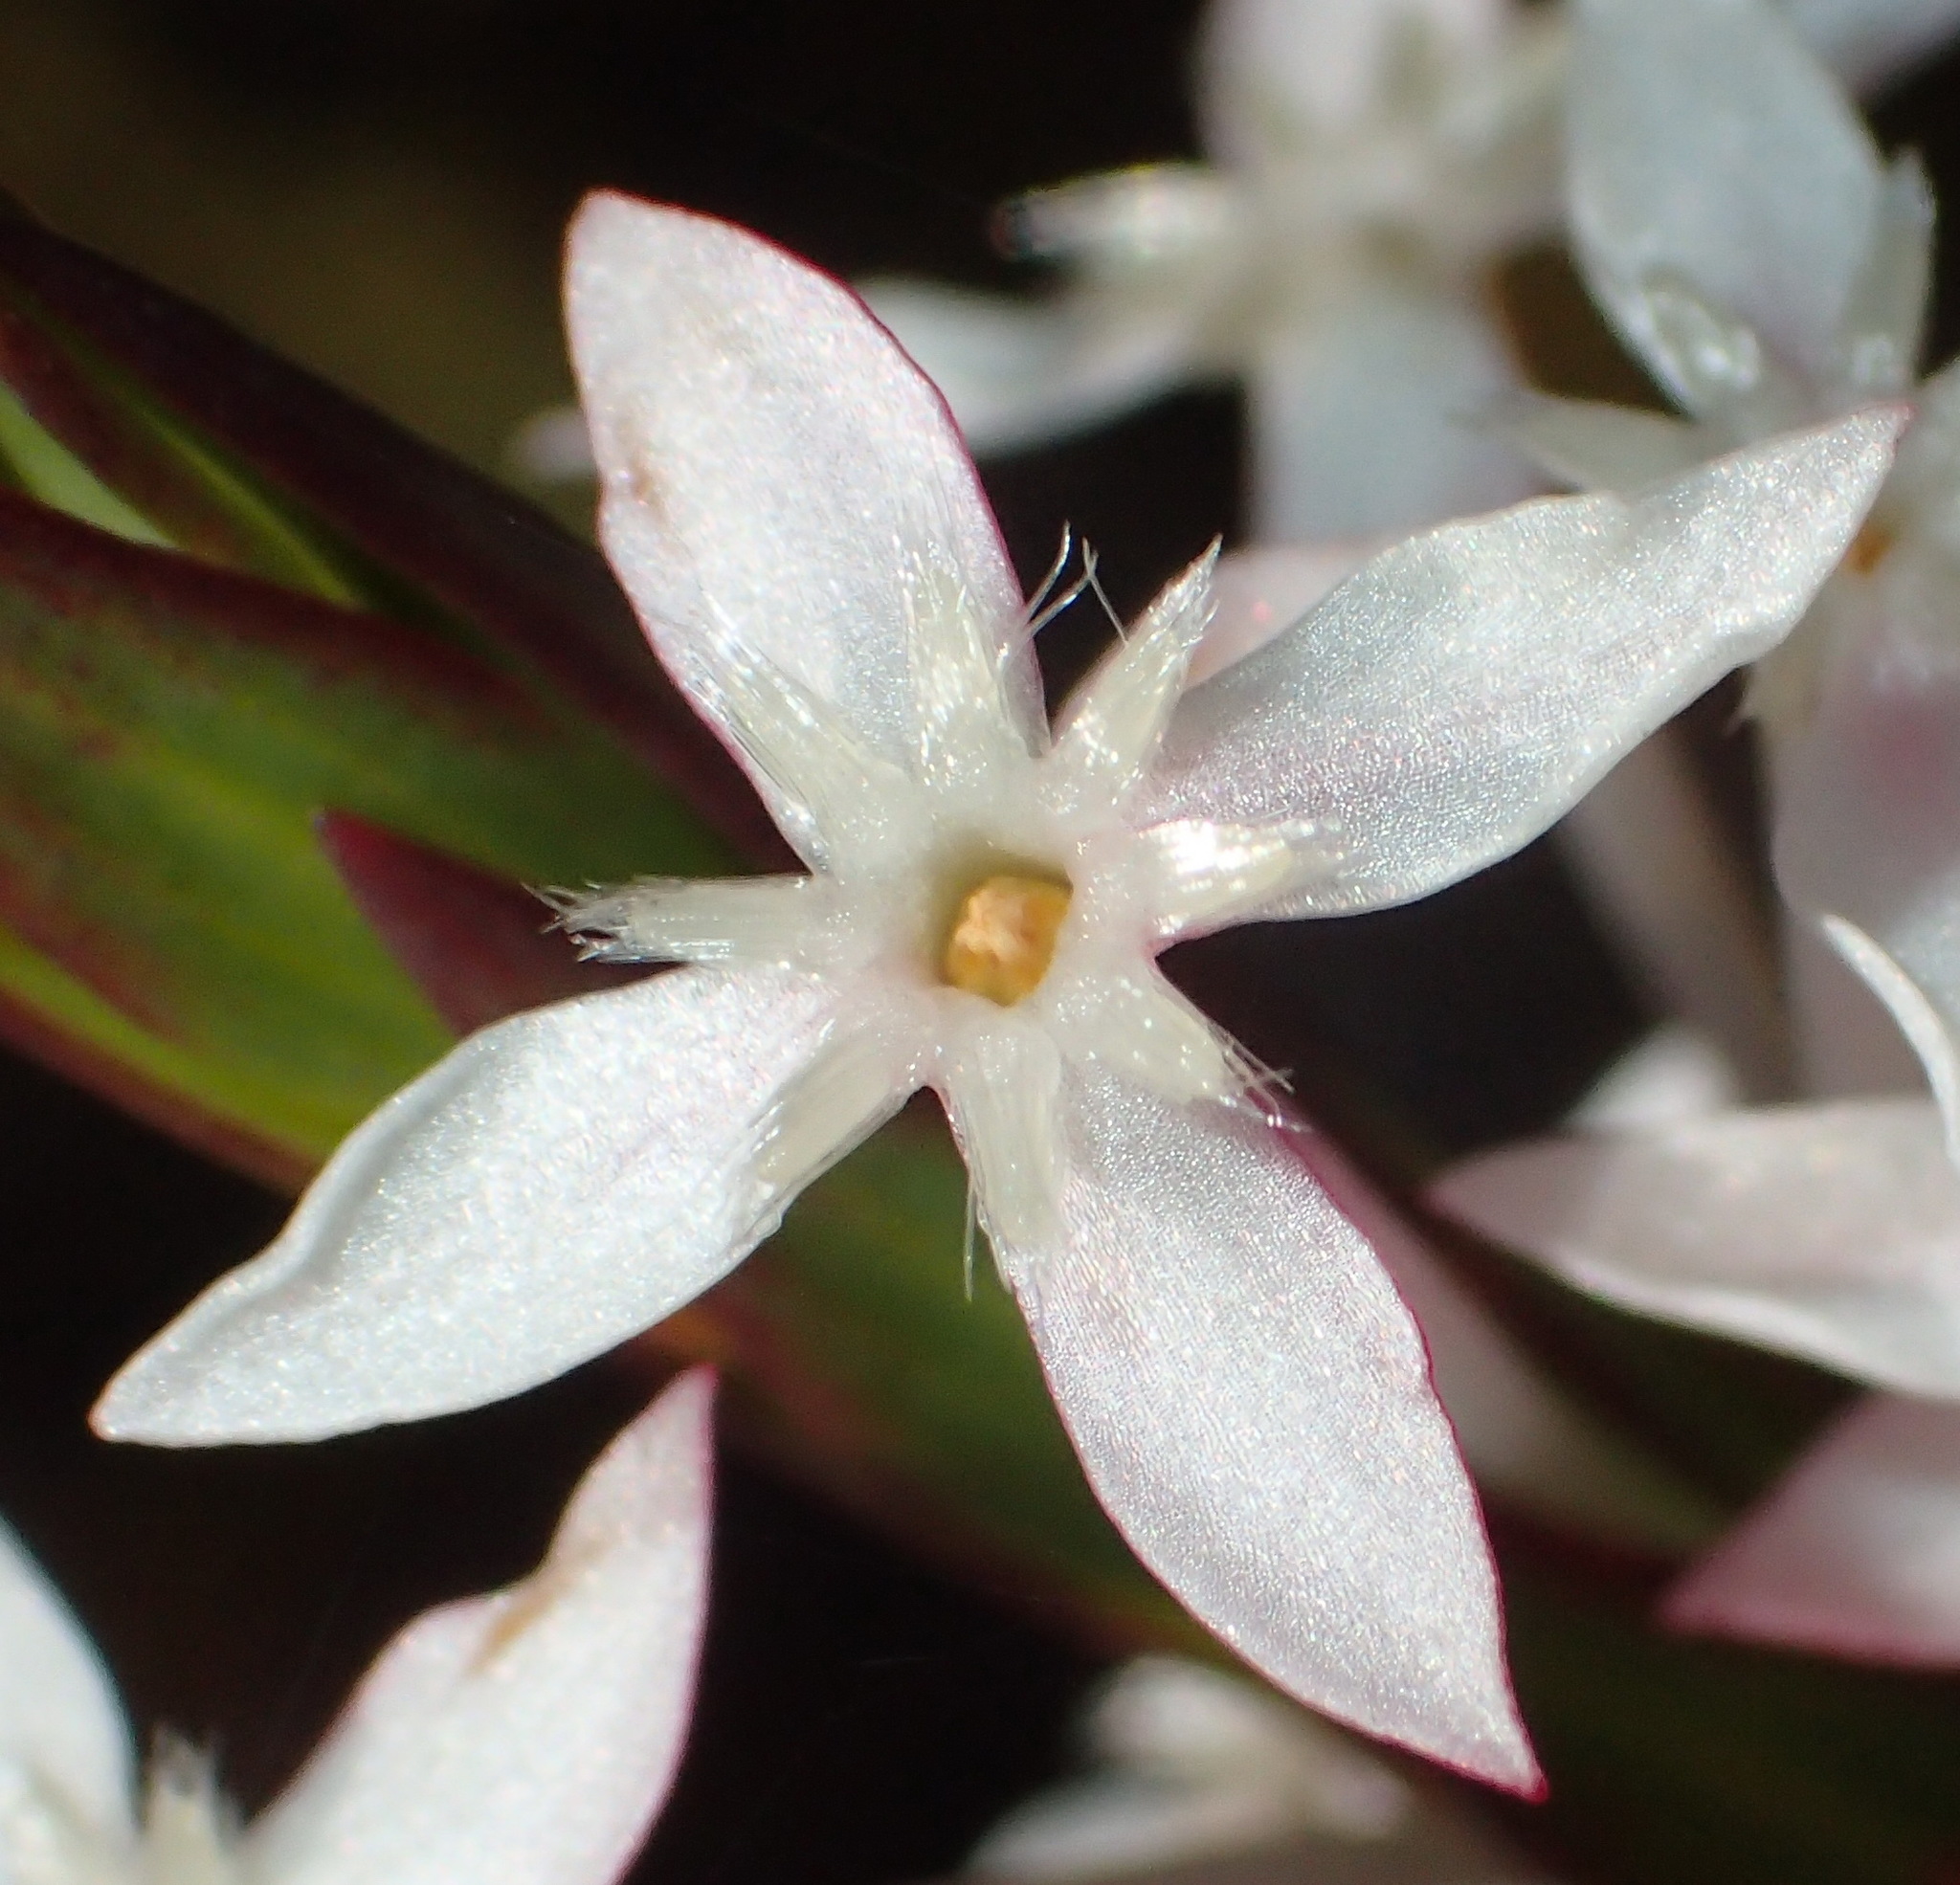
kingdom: Plantae
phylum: Tracheophyta
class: Magnoliopsida
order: Malvales
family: Thymelaeaceae
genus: Struthiola
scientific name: Struthiola myrsinites
